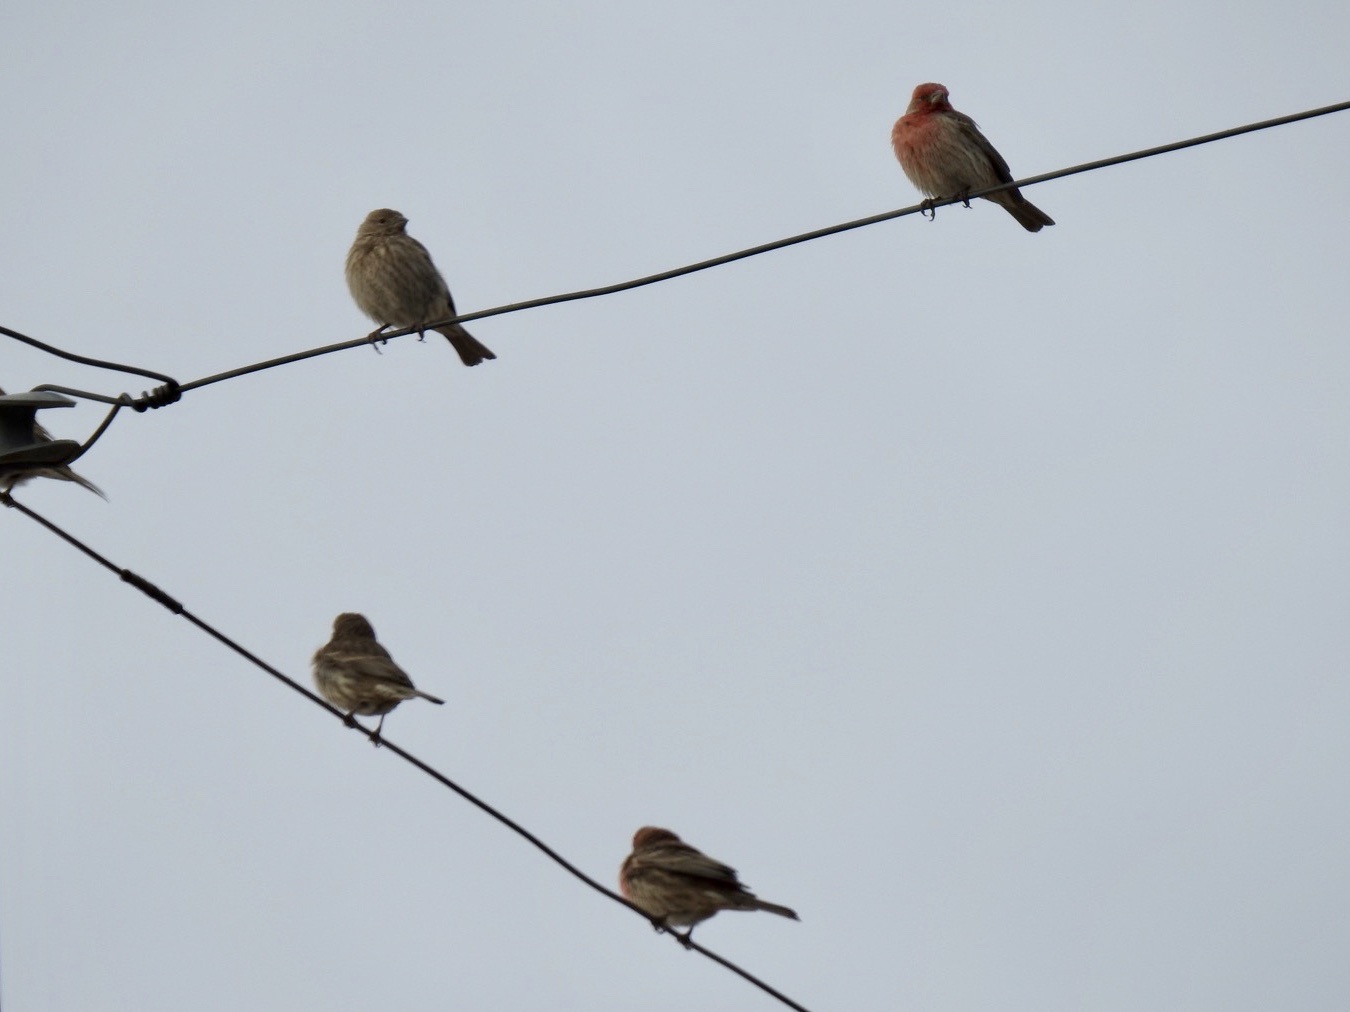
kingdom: Animalia
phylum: Chordata
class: Aves
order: Passeriformes
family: Fringillidae
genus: Haemorhous
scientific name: Haemorhous mexicanus
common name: House finch
